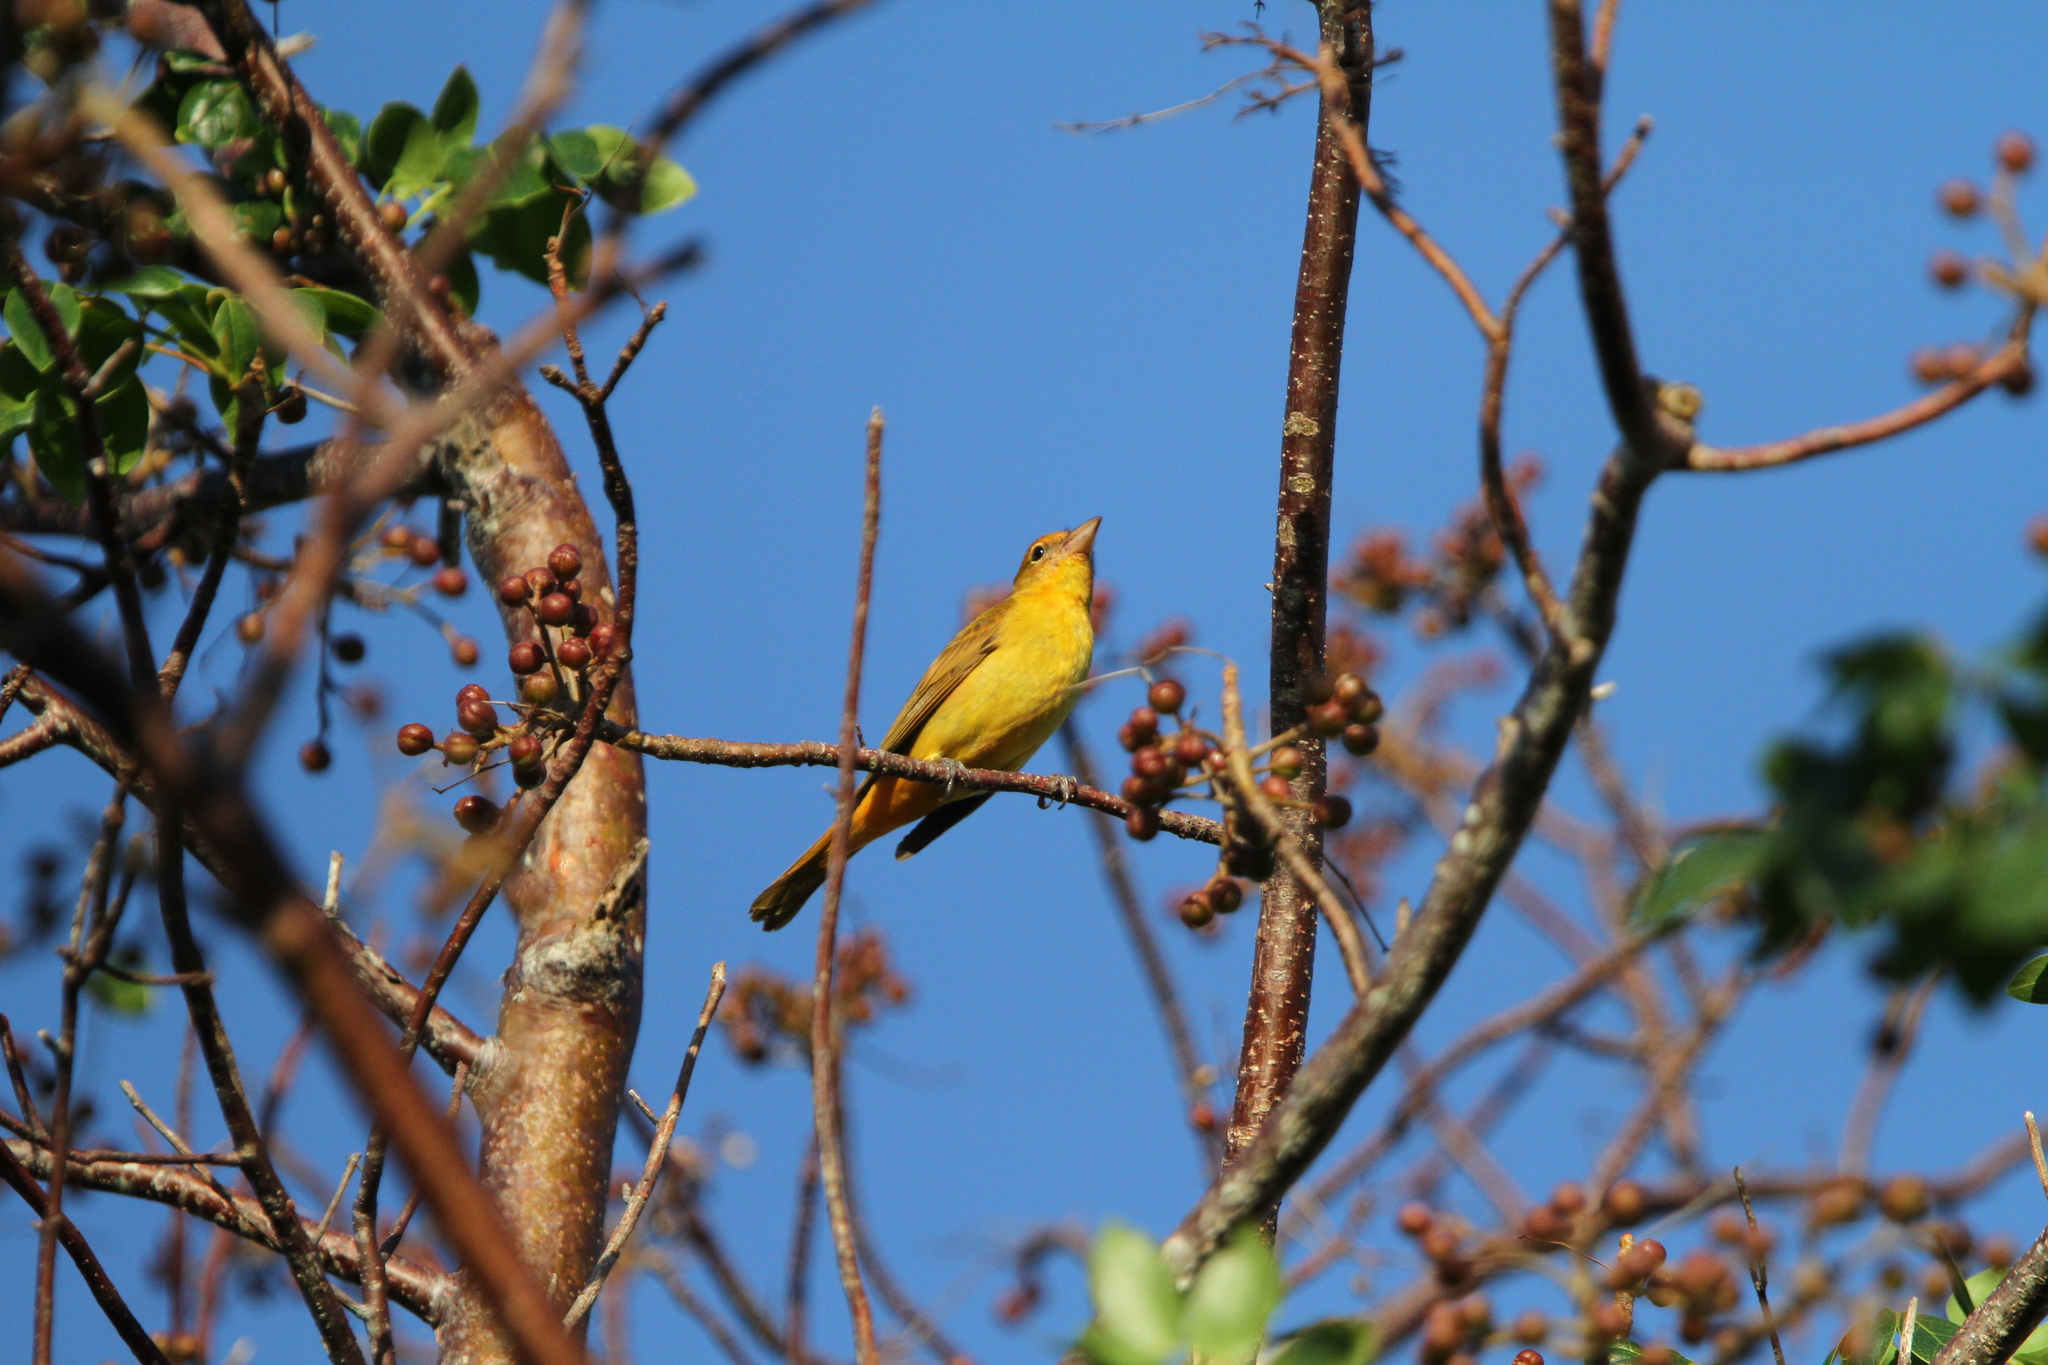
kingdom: Animalia
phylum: Chordata
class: Aves
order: Passeriformes
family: Cardinalidae
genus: Piranga
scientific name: Piranga rubra
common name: Summer tanager
